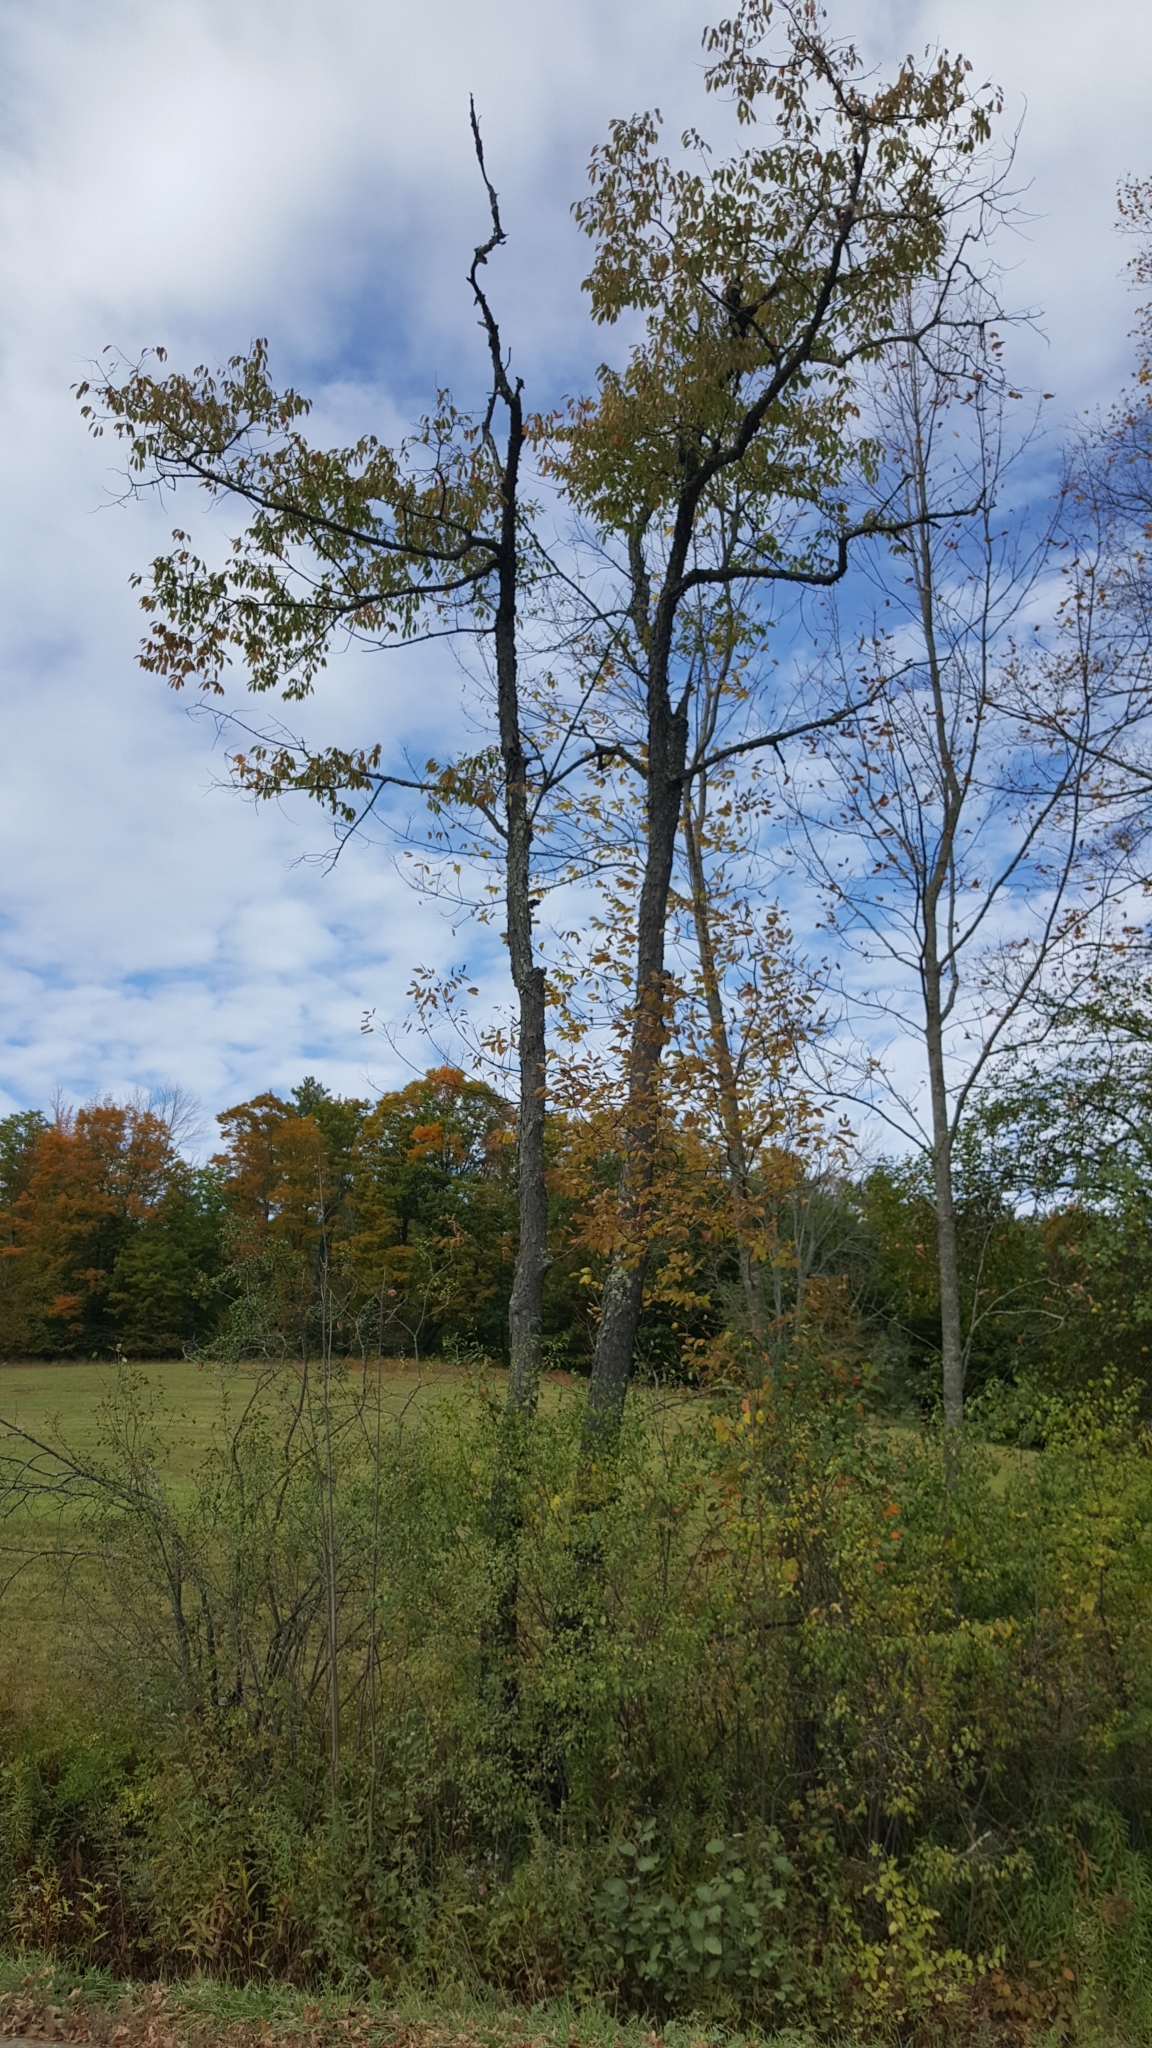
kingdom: Plantae
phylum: Tracheophyta
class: Magnoliopsida
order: Rosales
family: Rosaceae
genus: Prunus
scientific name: Prunus serotina
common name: Black cherry
